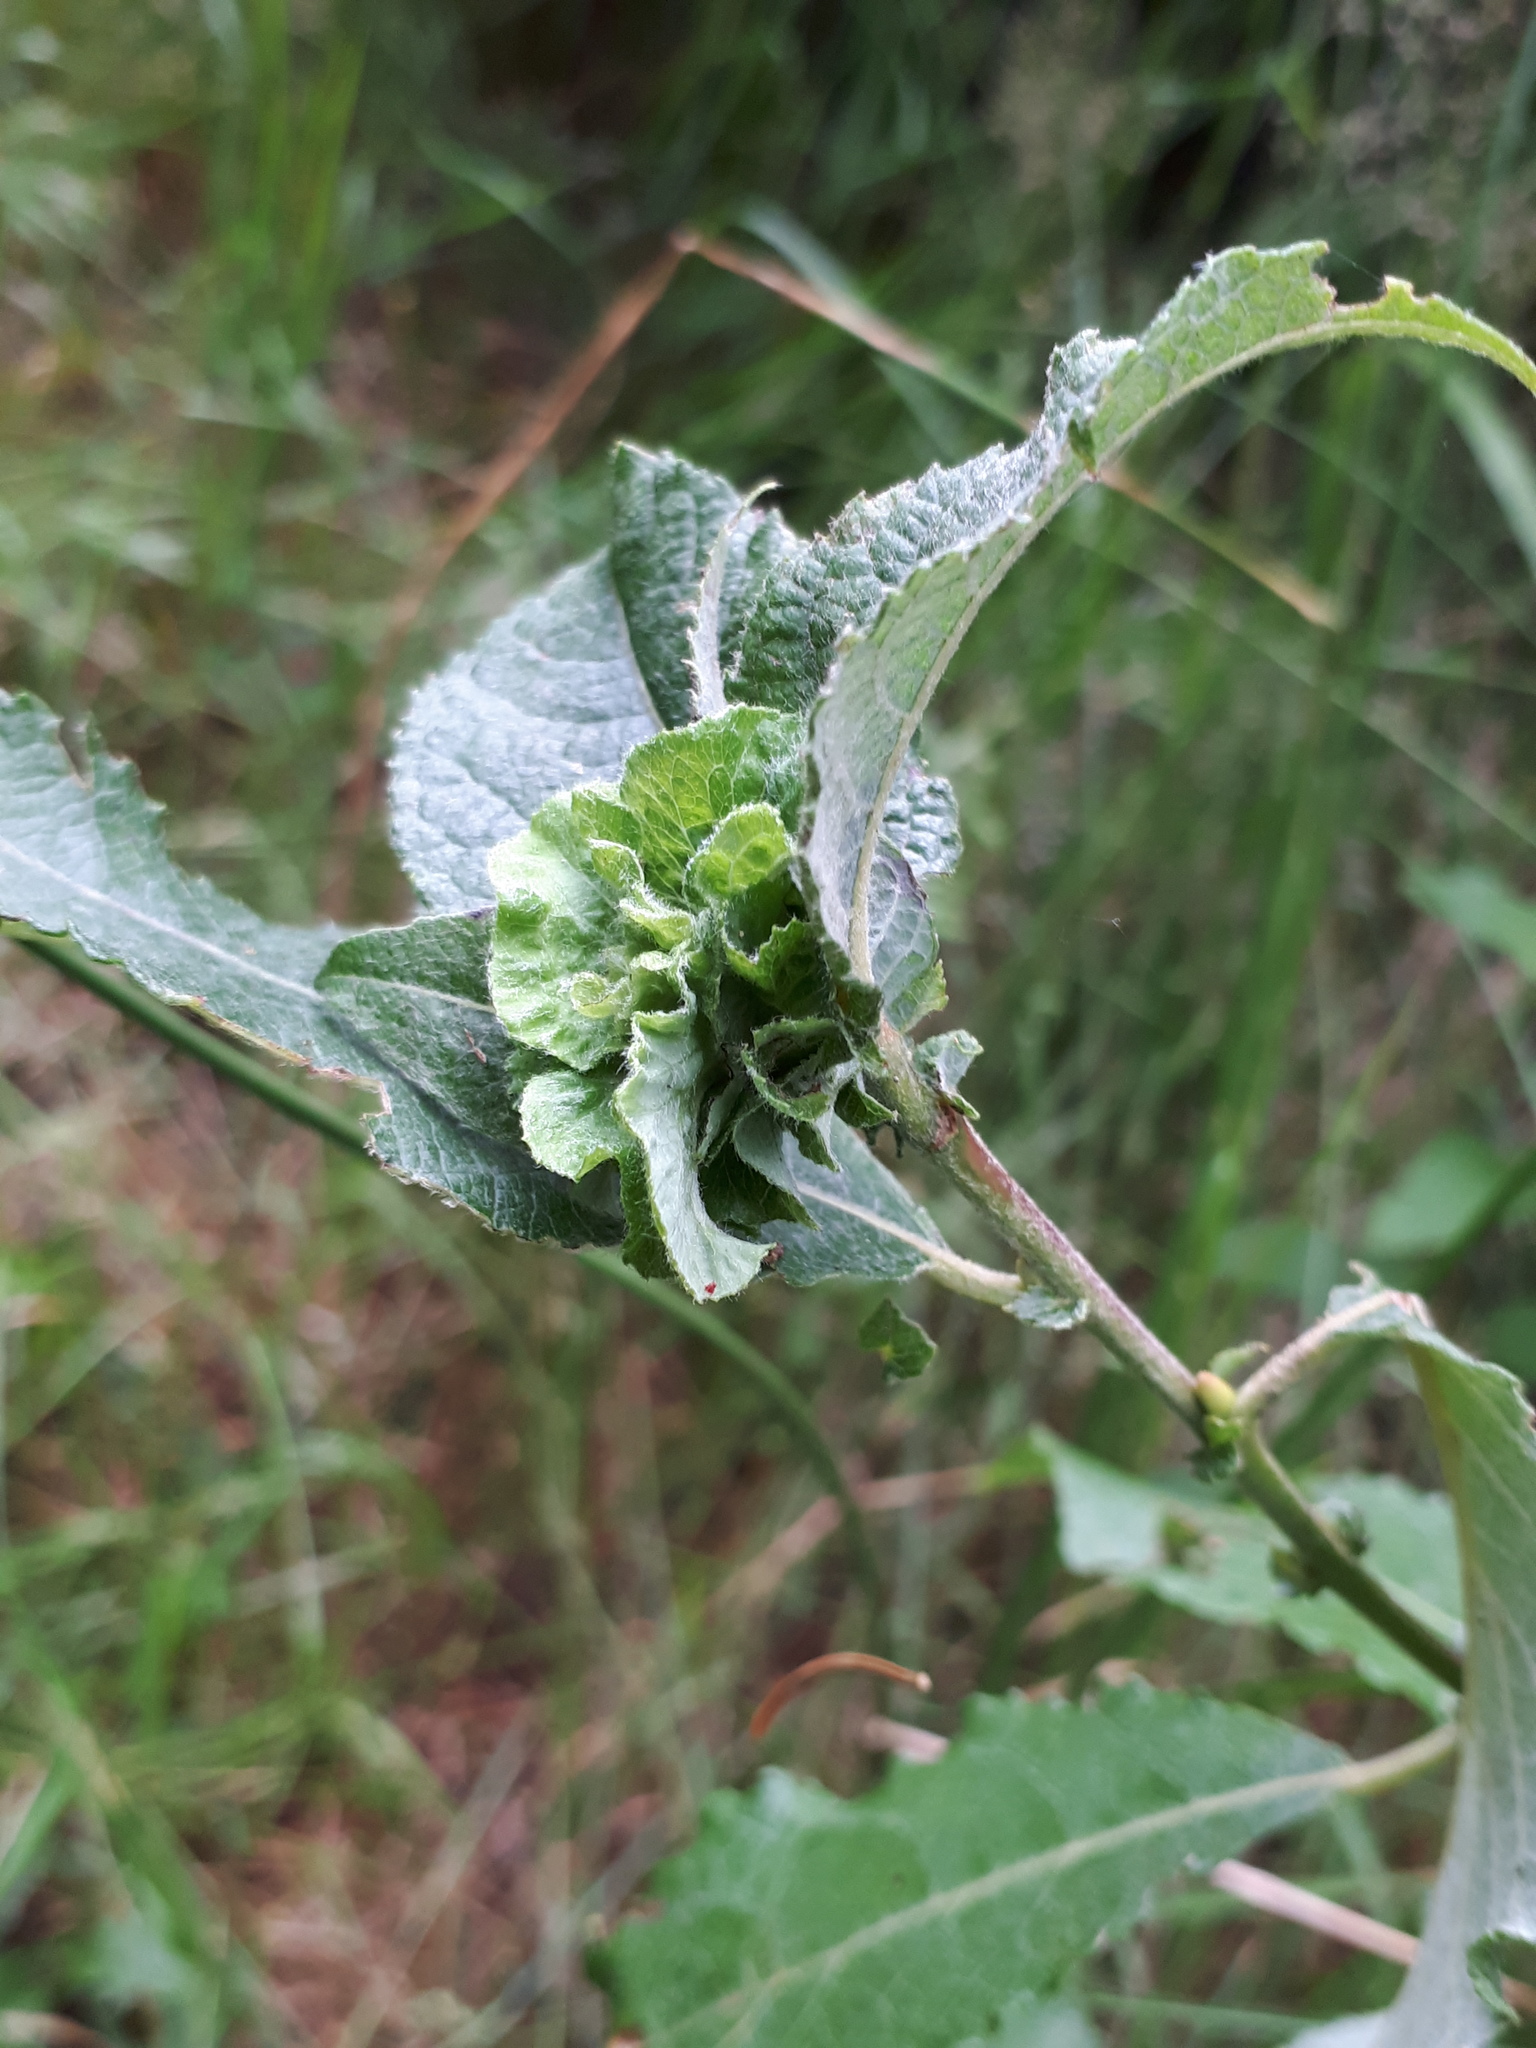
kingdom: Animalia
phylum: Arthropoda
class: Insecta
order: Diptera
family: Cecidomyiidae
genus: Rabdophaga
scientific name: Rabdophaga rosaria
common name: Willow rose gall midge
